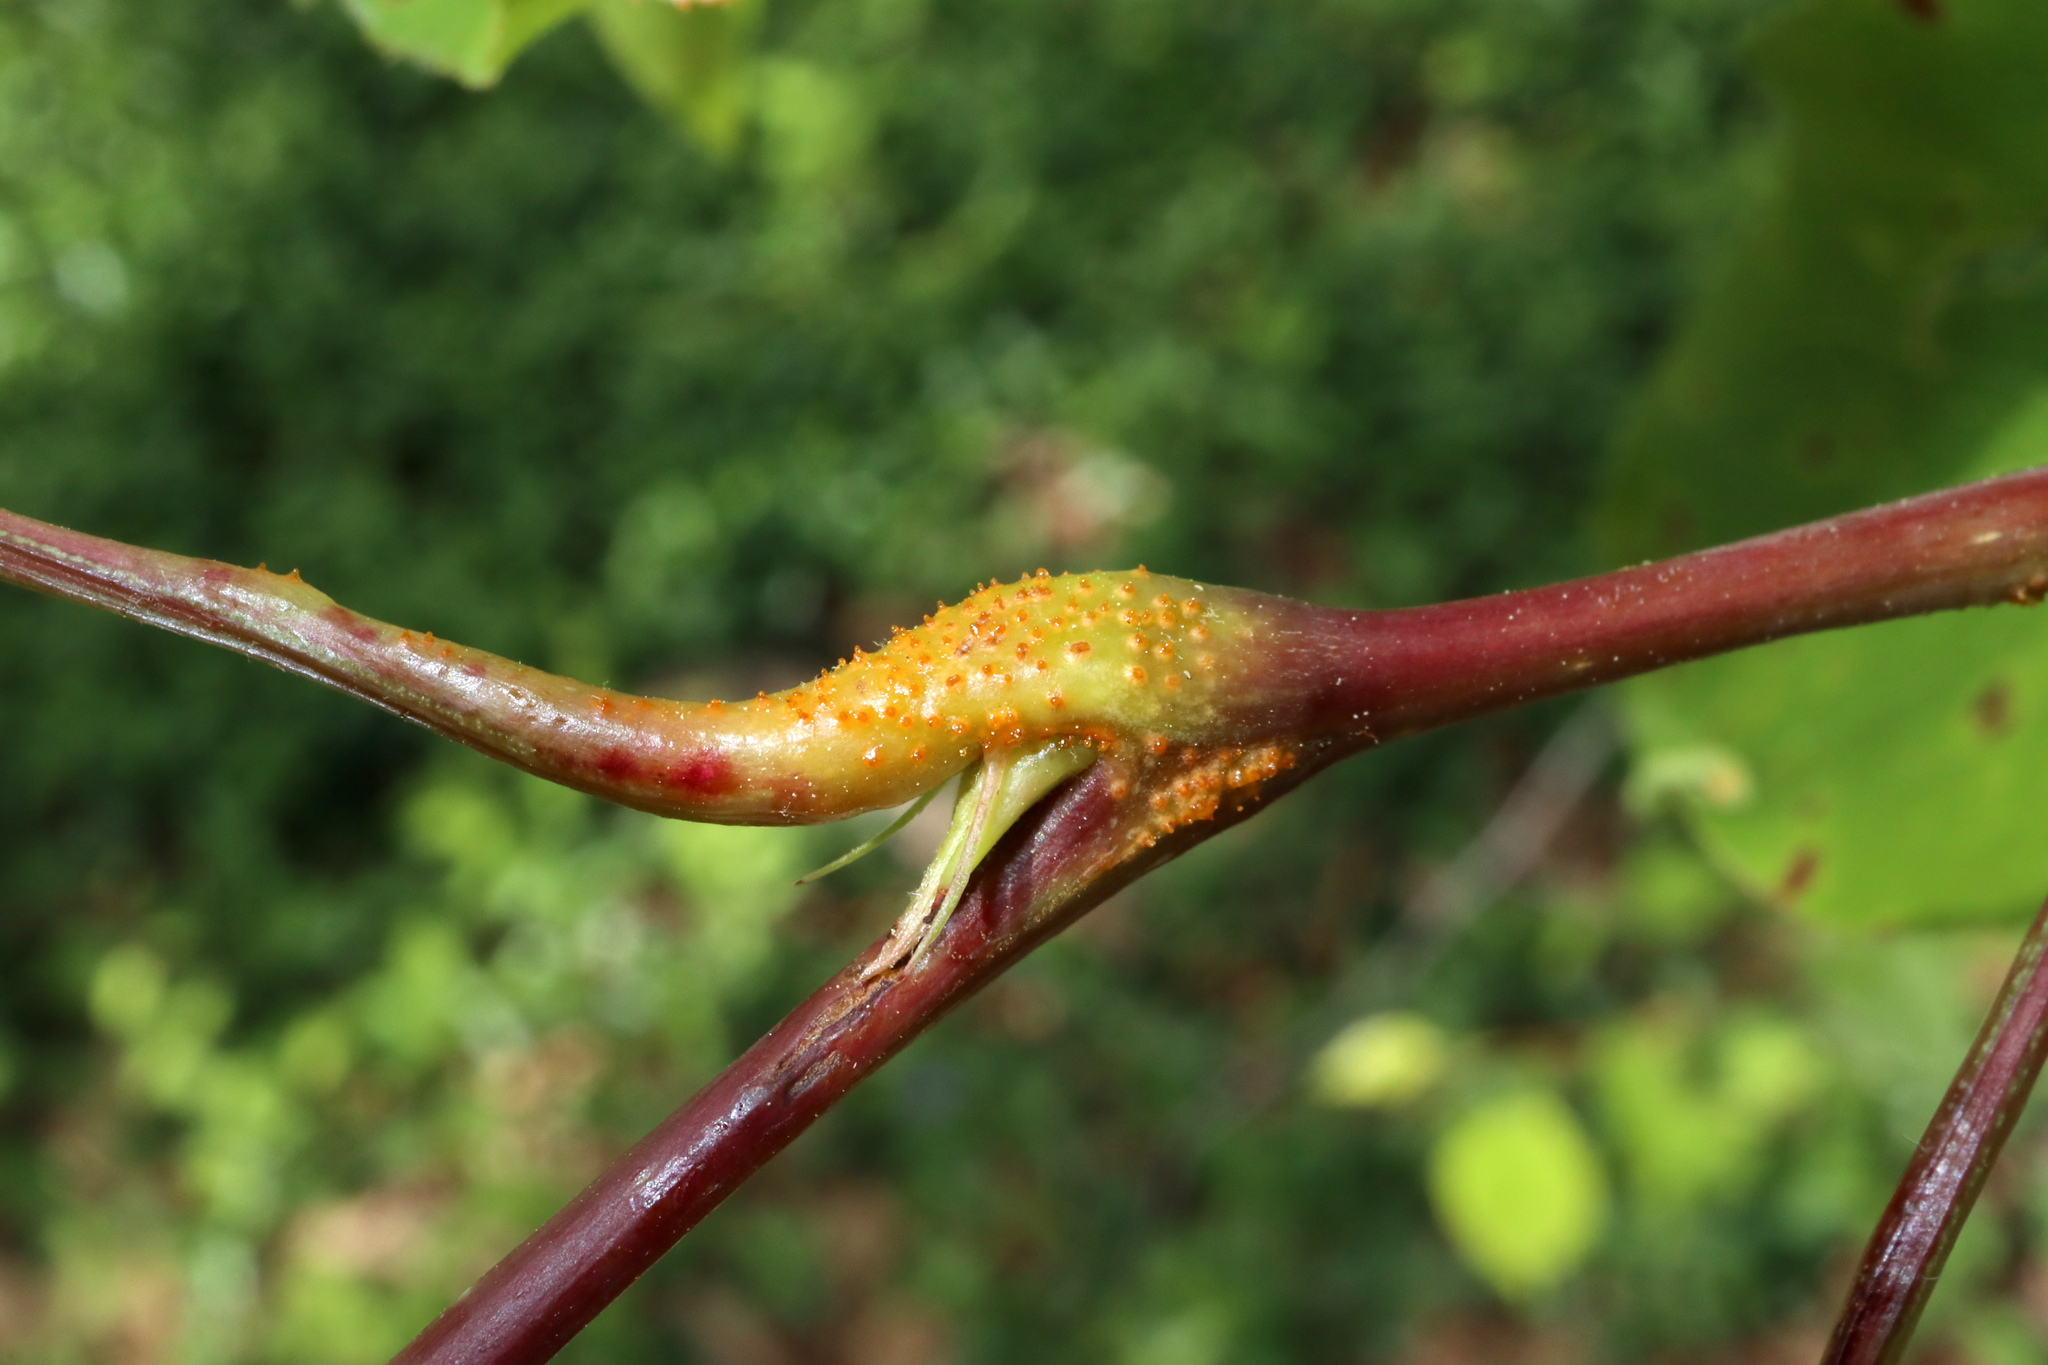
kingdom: Fungi
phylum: Basidiomycota
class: Pucciniomycetes
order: Pucciniales
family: Gymnosporangiaceae
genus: Gymnosporangium
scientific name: Gymnosporangium sabinae
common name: Pear trellis rust fungus
